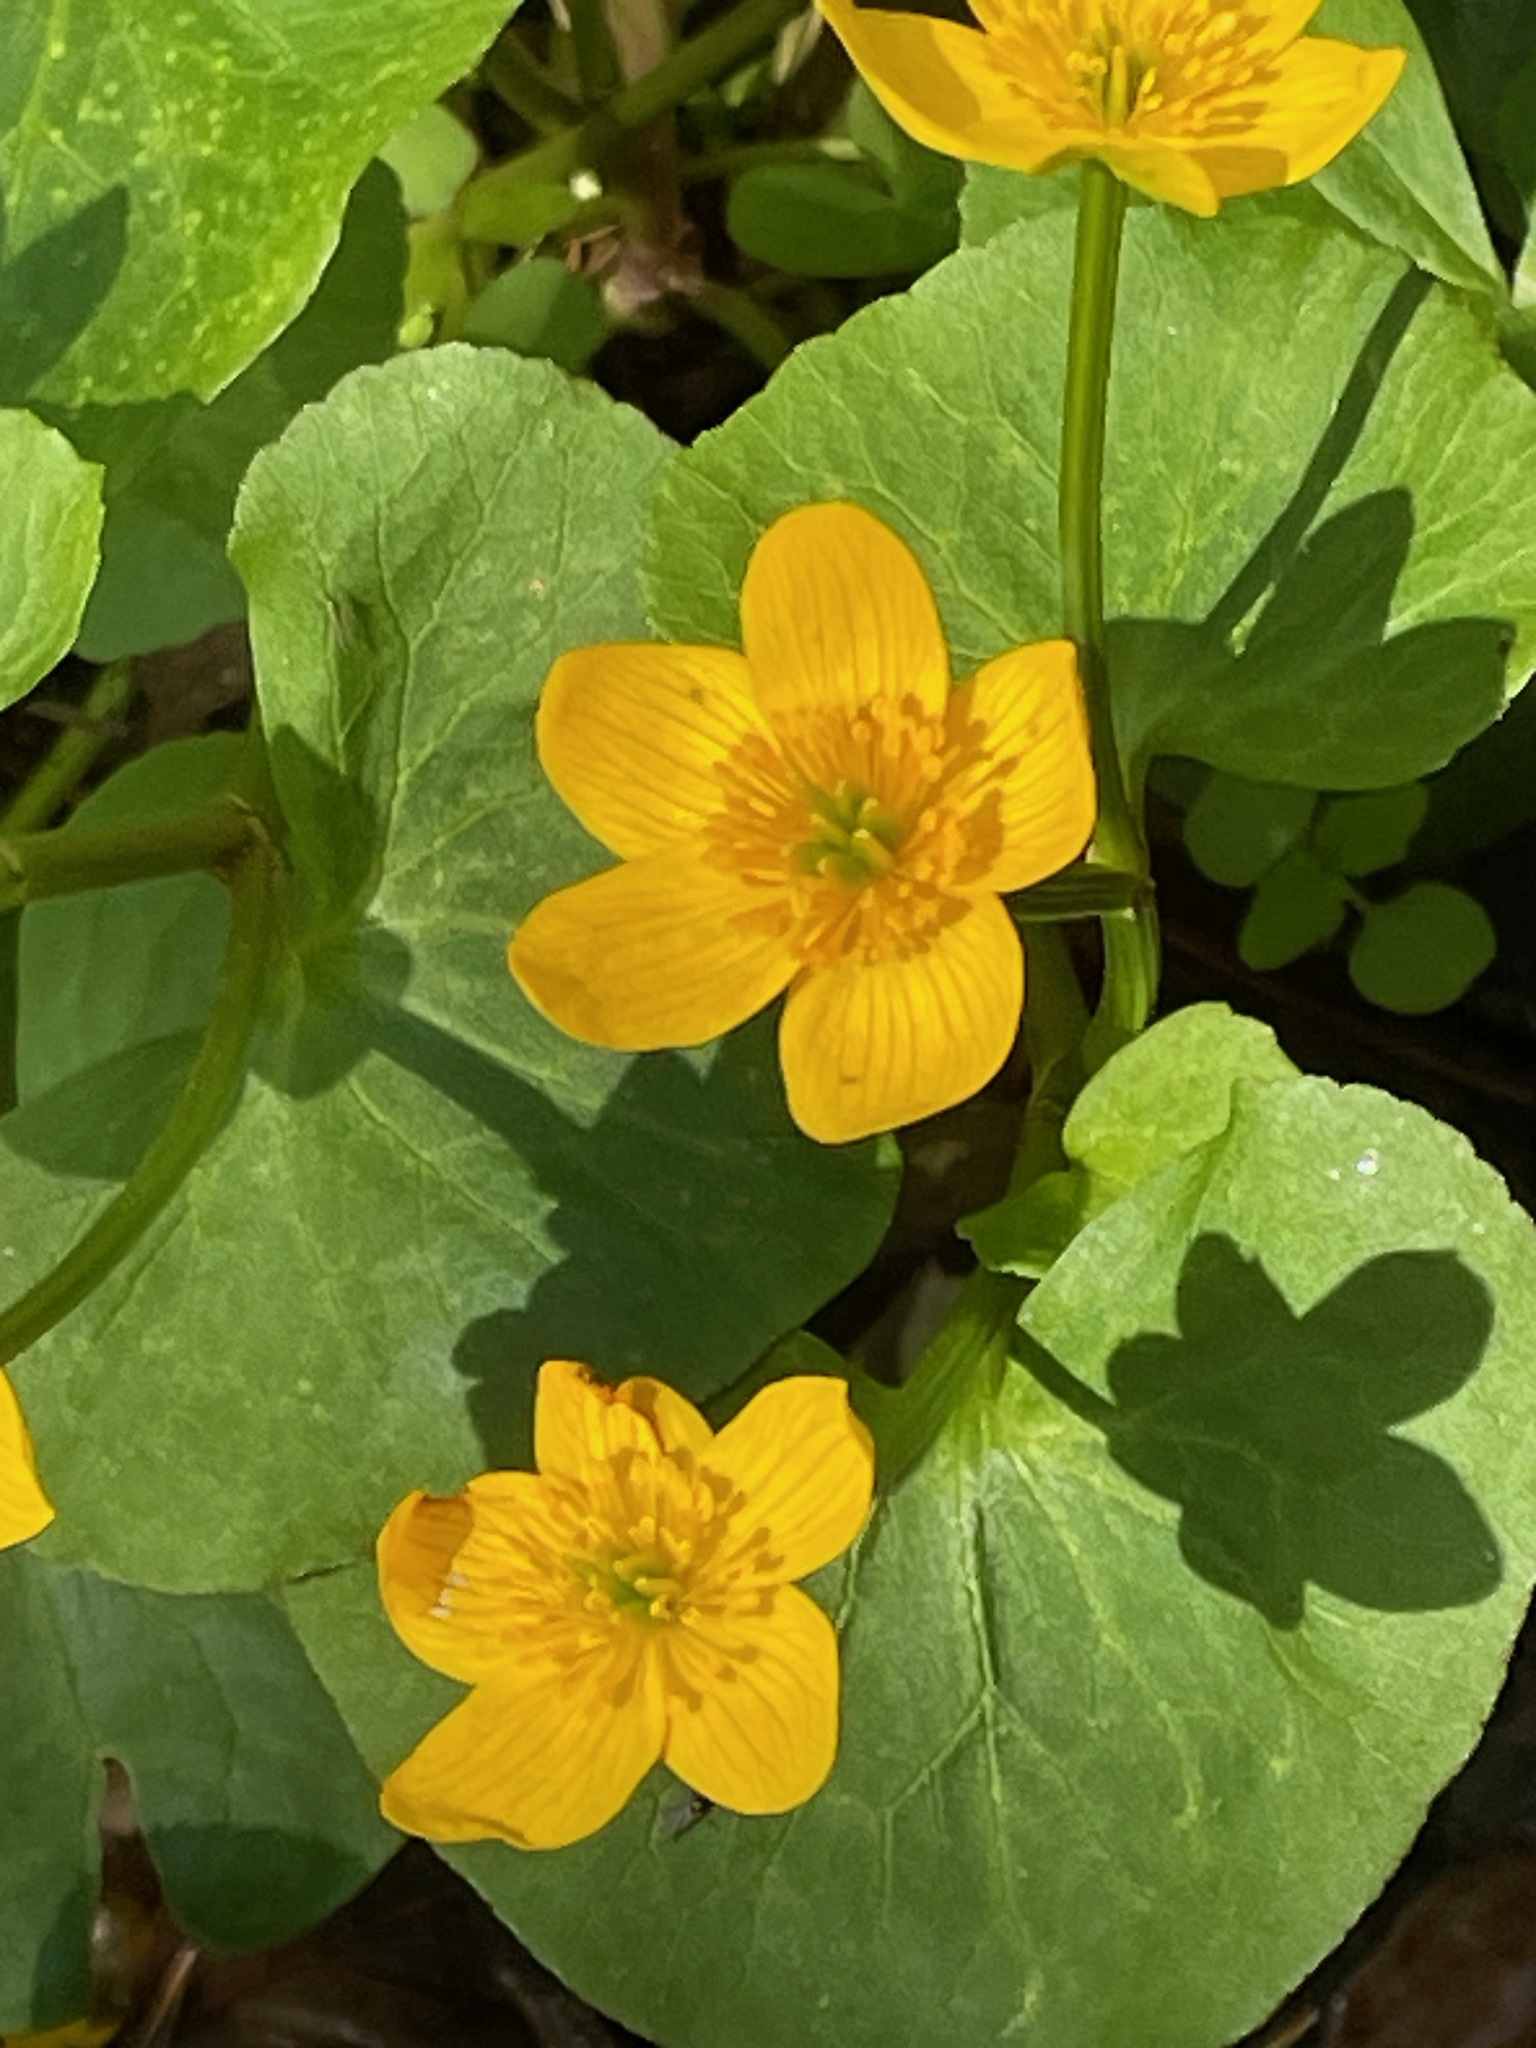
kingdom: Plantae
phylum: Tracheophyta
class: Magnoliopsida
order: Ranunculales
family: Ranunculaceae
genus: Caltha
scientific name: Caltha palustris
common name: Marsh marigold
